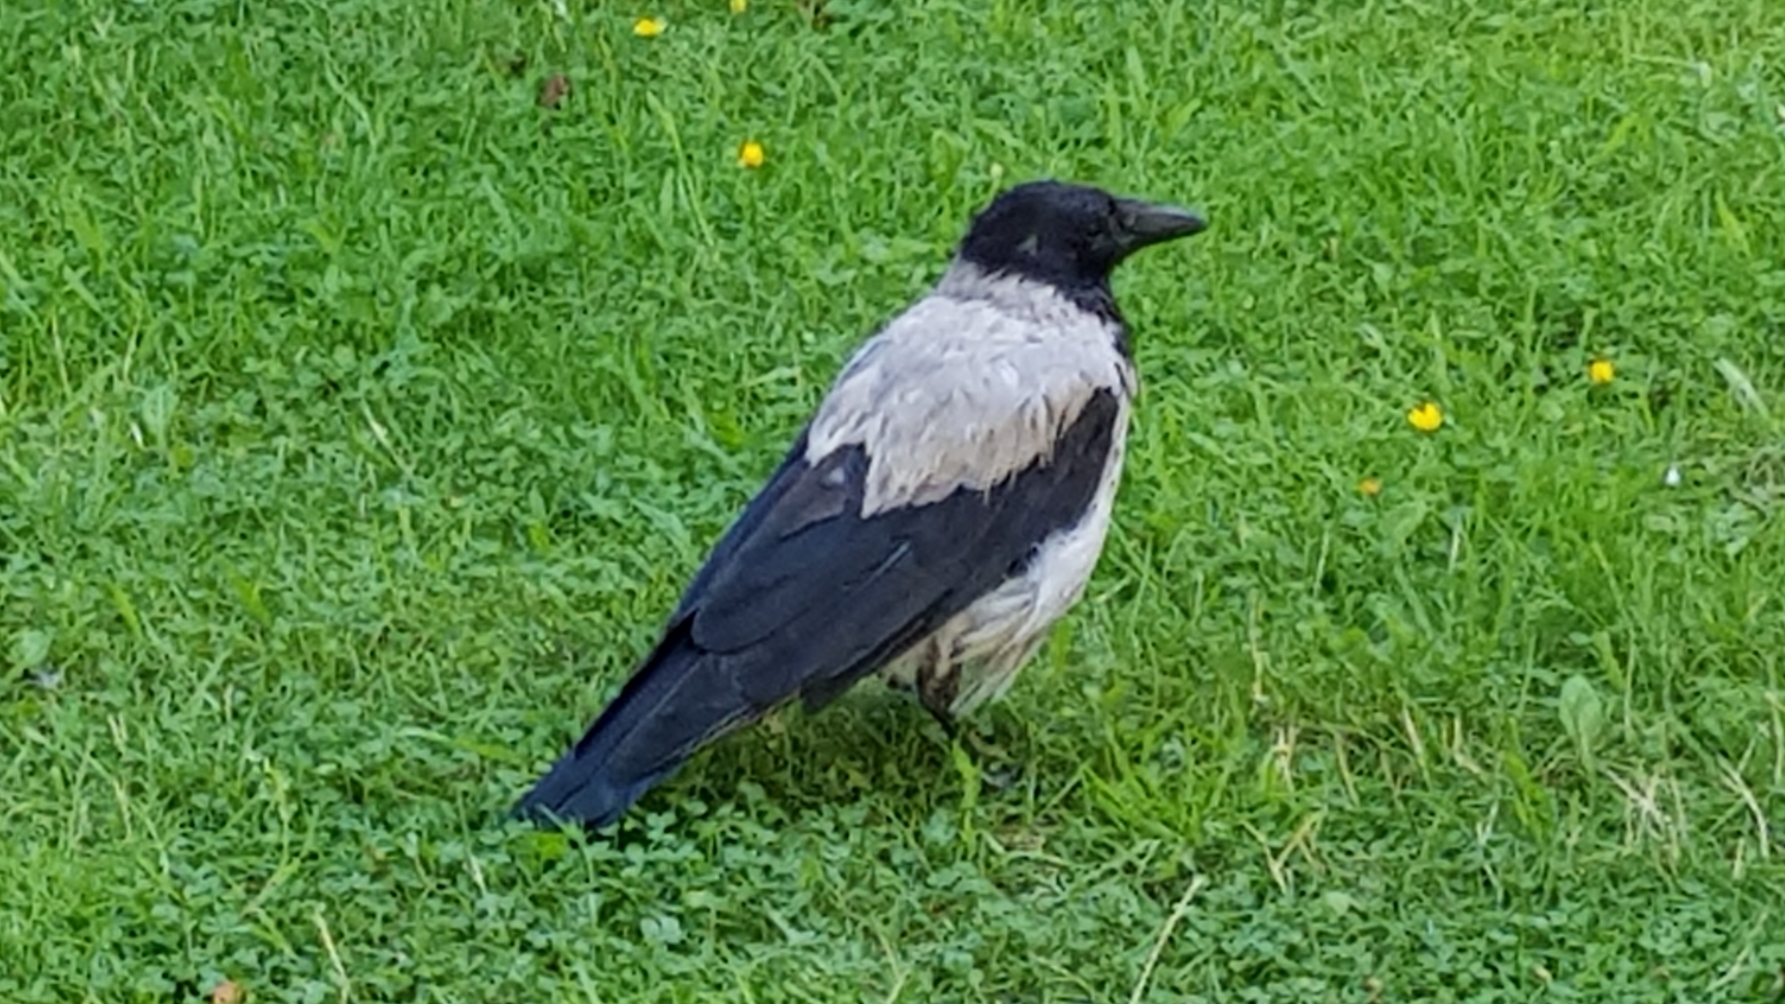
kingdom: Animalia
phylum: Chordata
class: Aves
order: Passeriformes
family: Corvidae
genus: Corvus
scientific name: Corvus cornix
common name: Hooded crow
